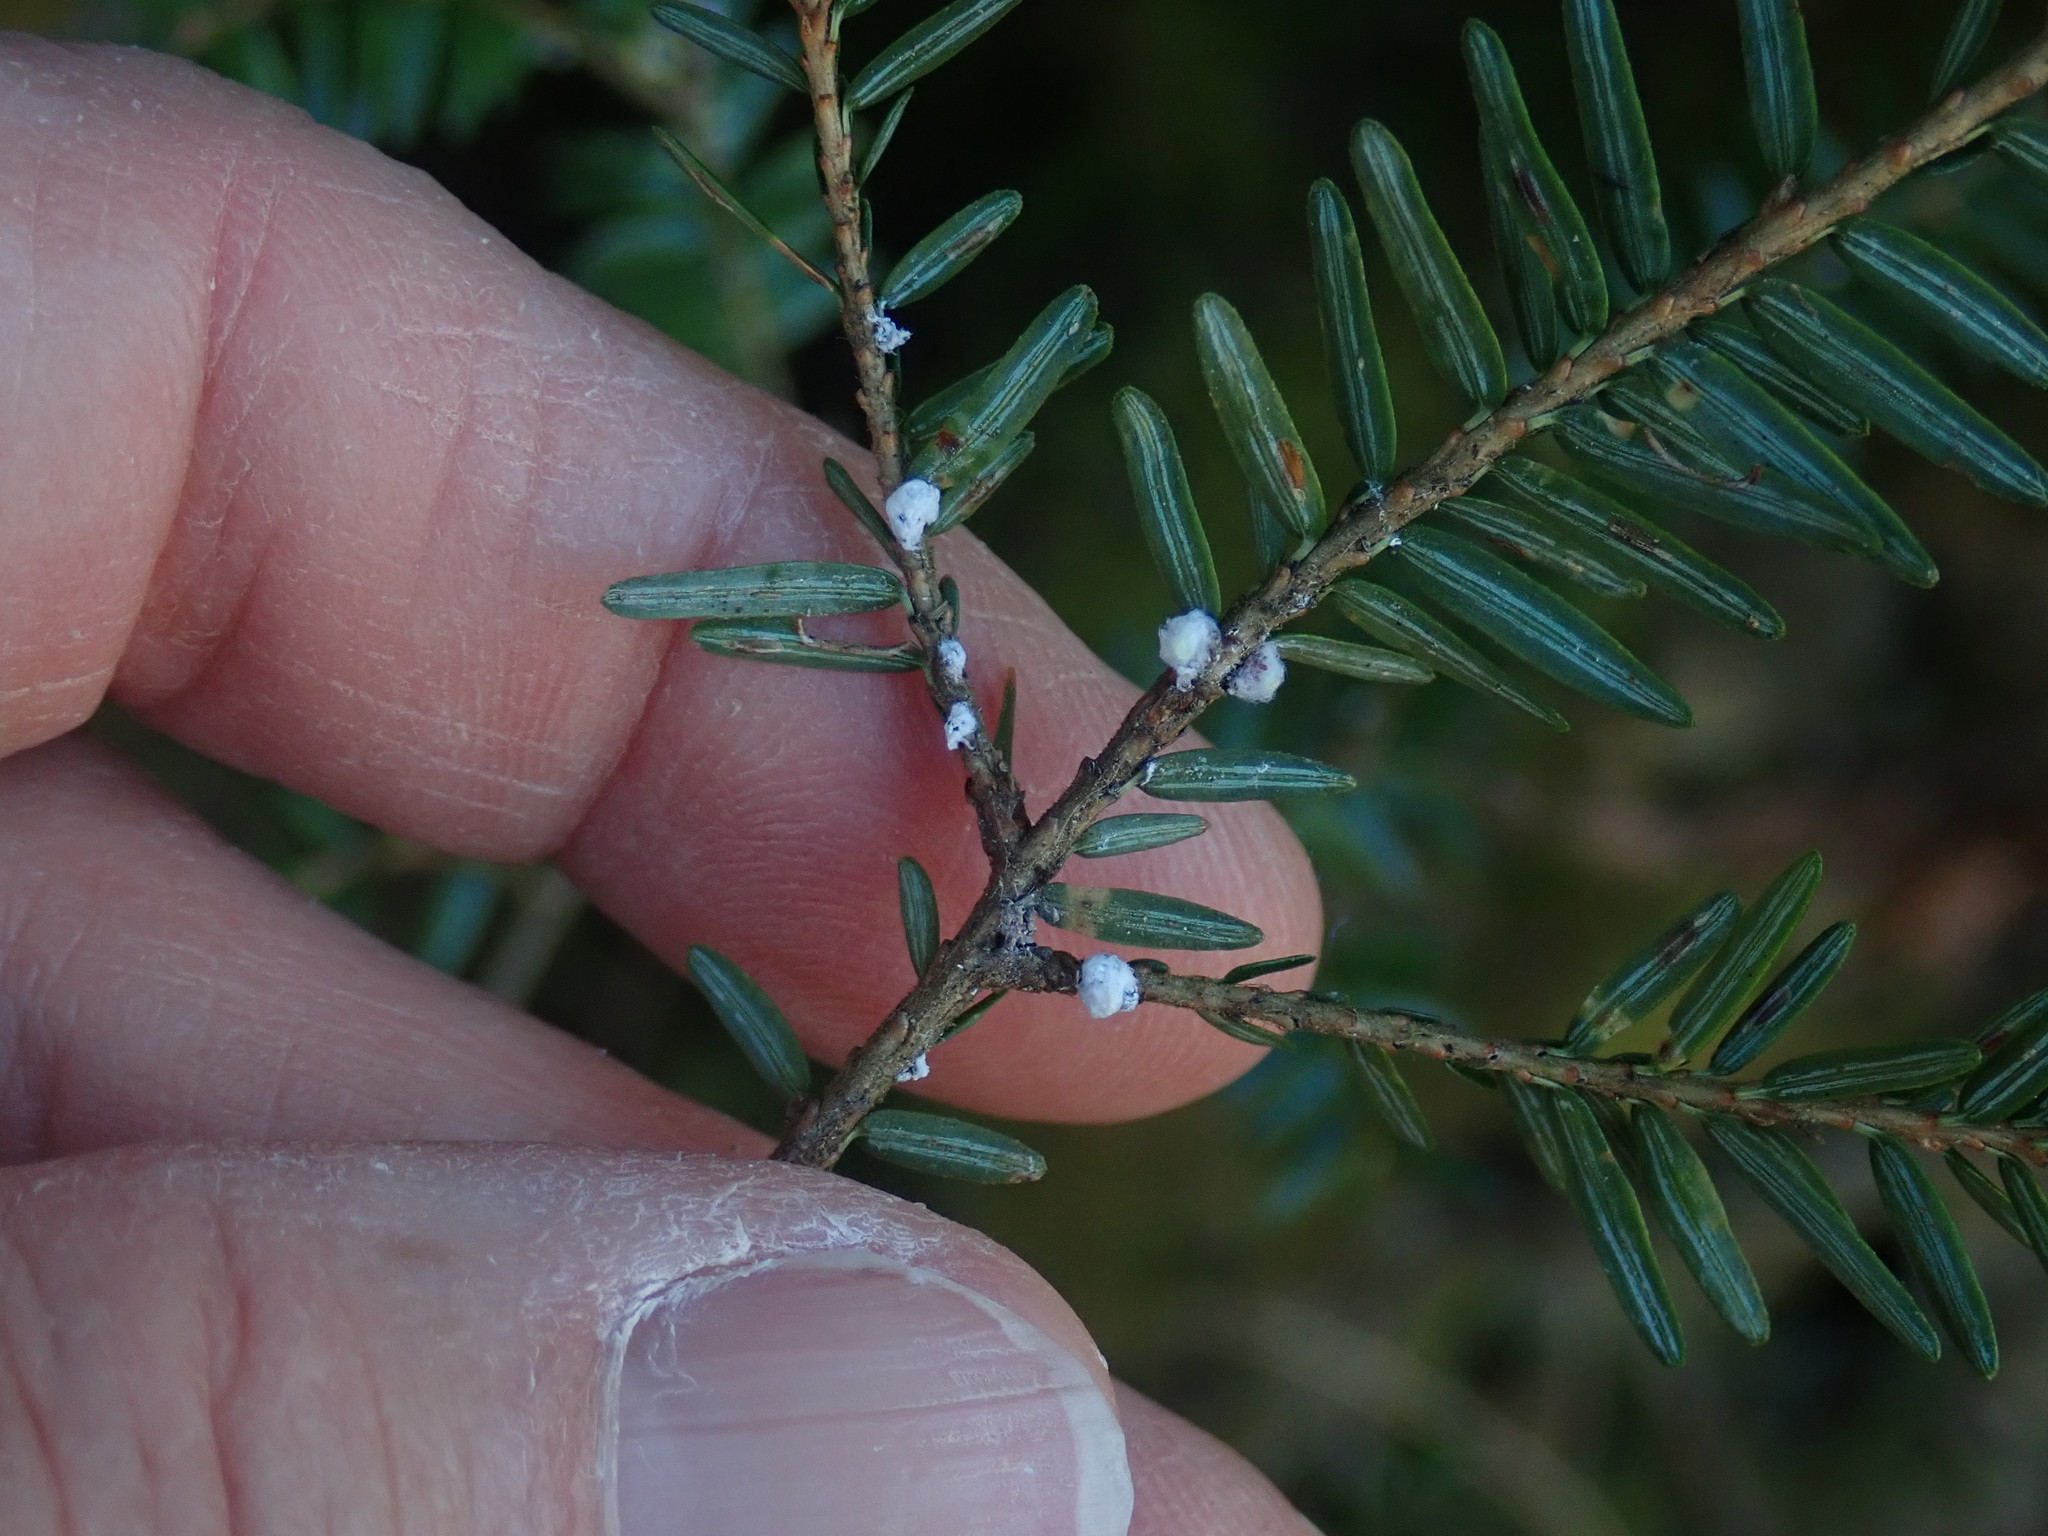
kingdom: Animalia
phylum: Arthropoda
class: Insecta
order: Hemiptera
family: Adelgidae
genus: Adelges
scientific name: Adelges tsugae
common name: Hemlock woolly adelgid
